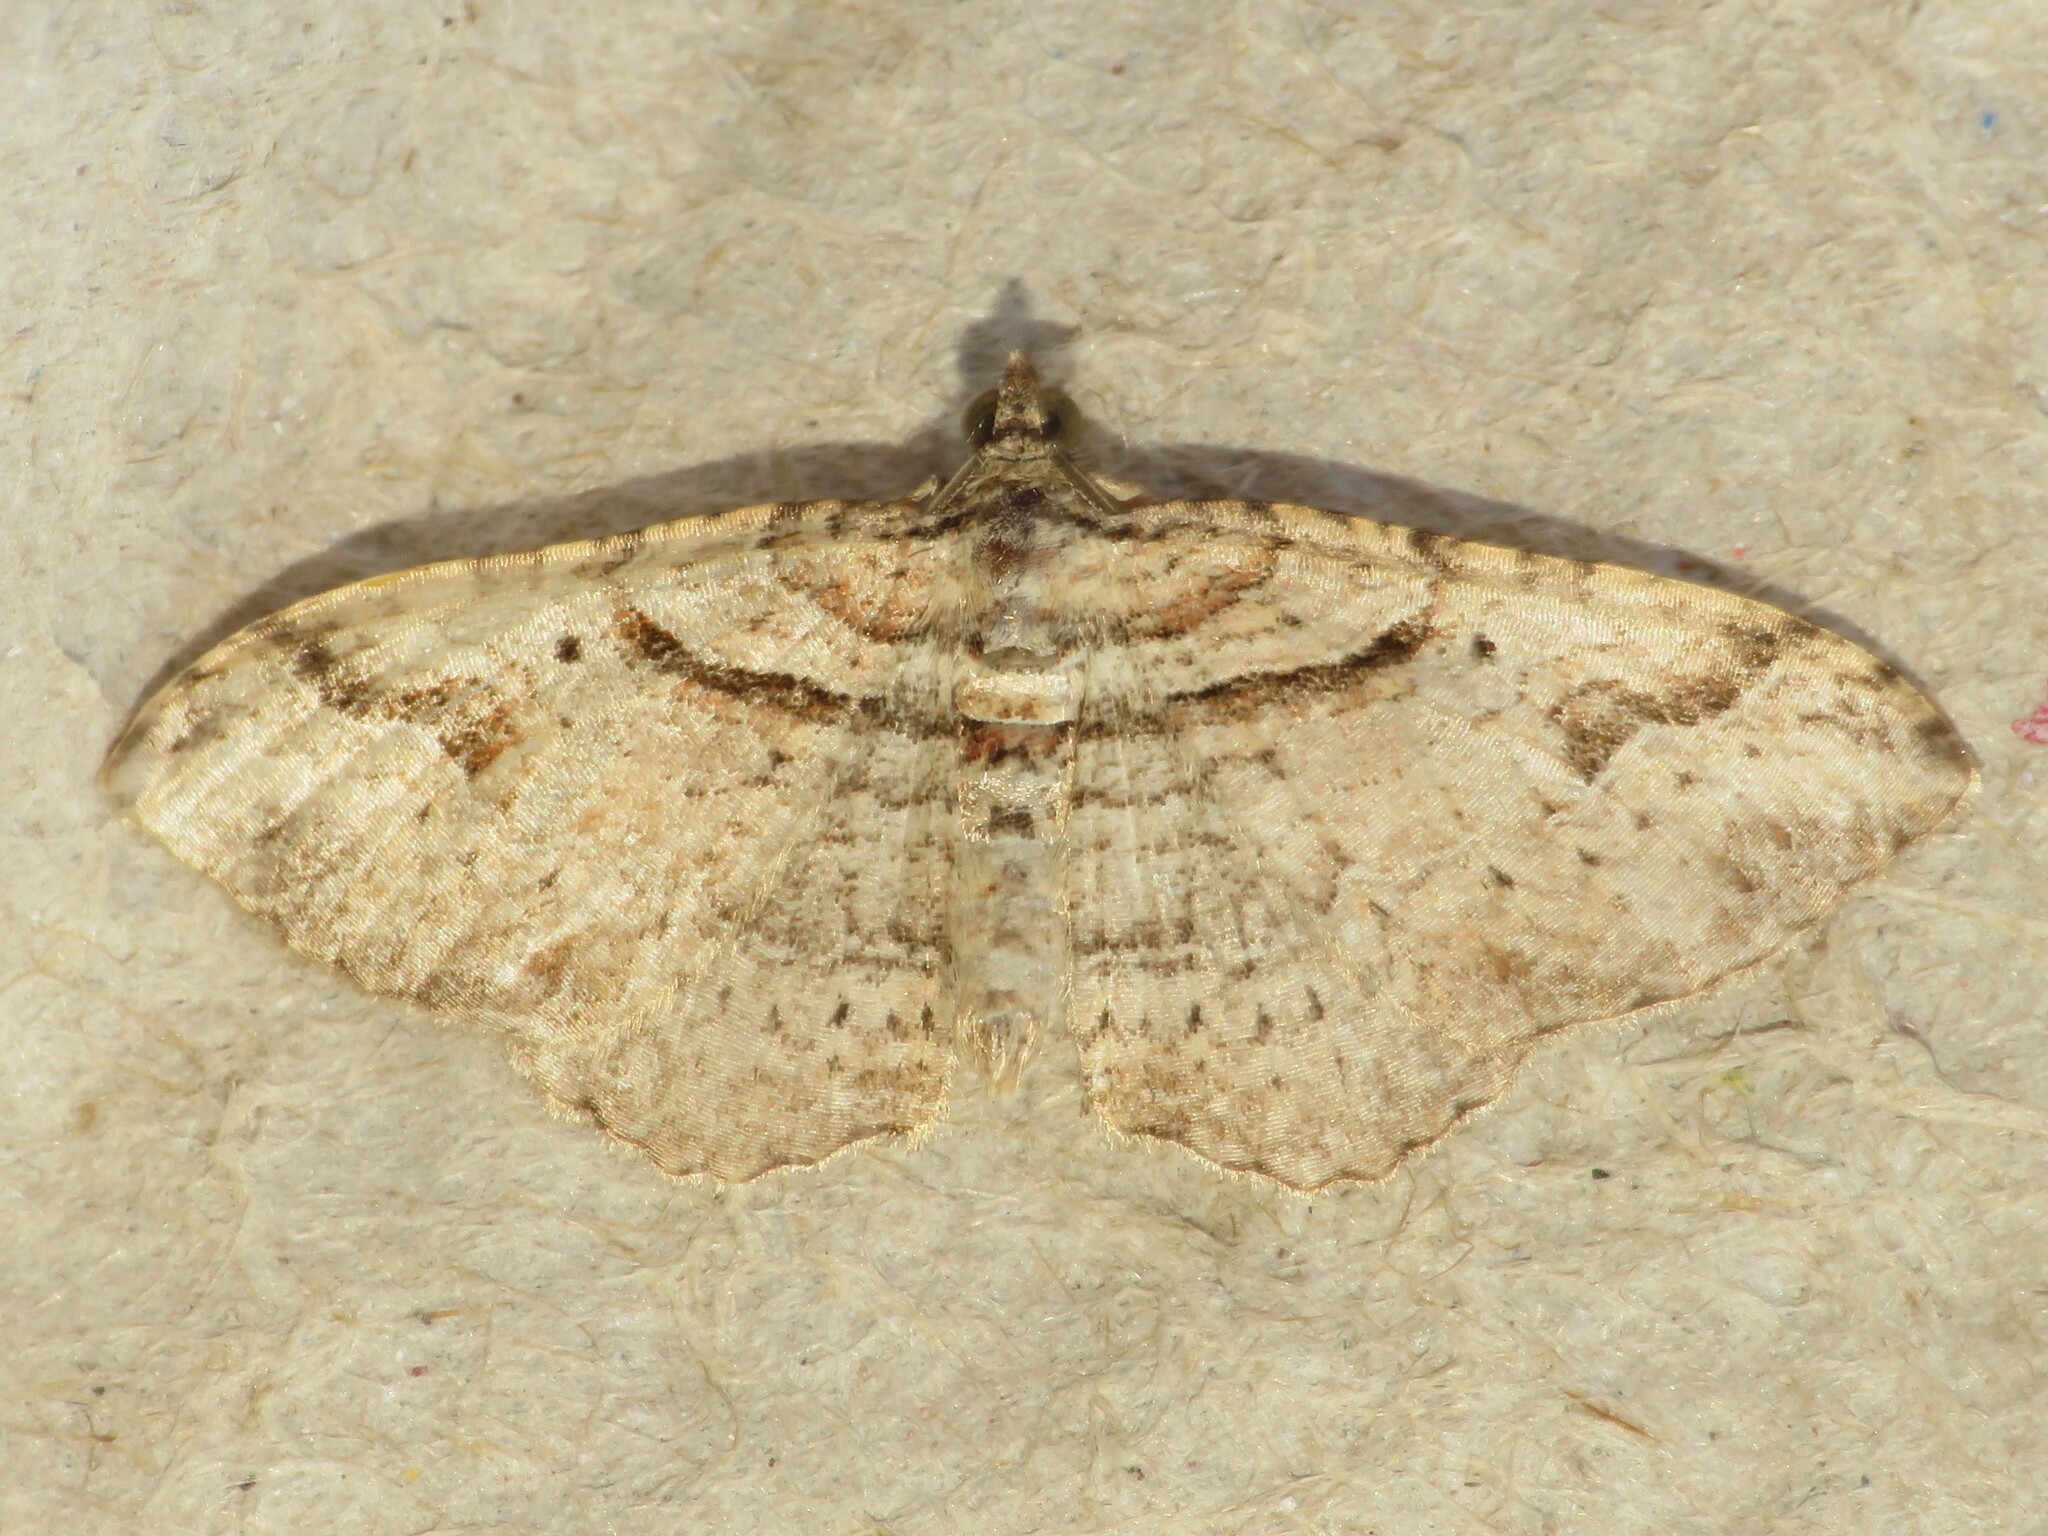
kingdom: Animalia
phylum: Arthropoda
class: Insecta
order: Lepidoptera
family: Geometridae
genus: Costaconvexa
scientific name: Costaconvexa centrostrigaria
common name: Bent-line carpet
